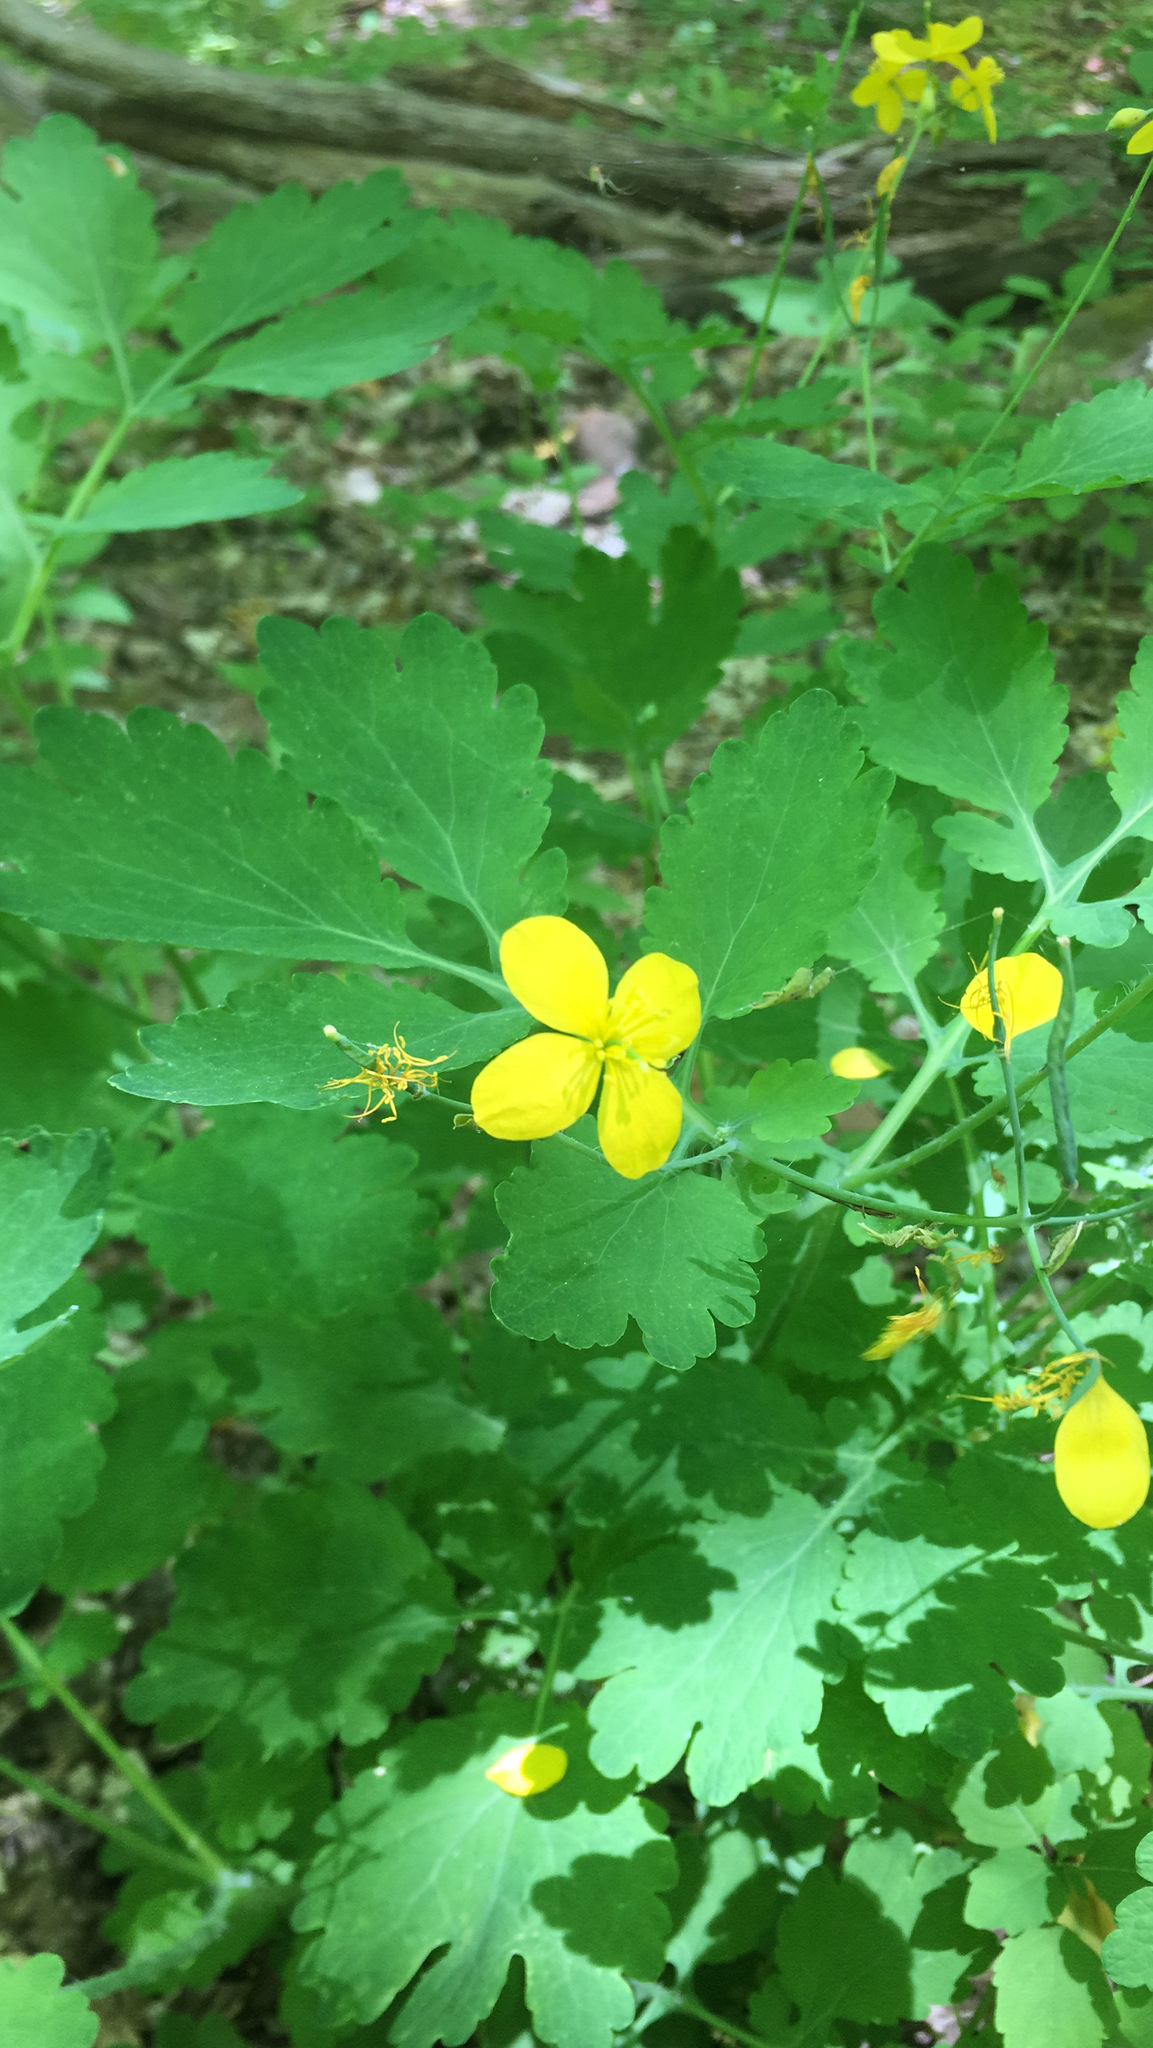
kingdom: Plantae
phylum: Tracheophyta
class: Magnoliopsida
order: Ranunculales
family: Papaveraceae
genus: Chelidonium
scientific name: Chelidonium majus
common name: Greater celandine
